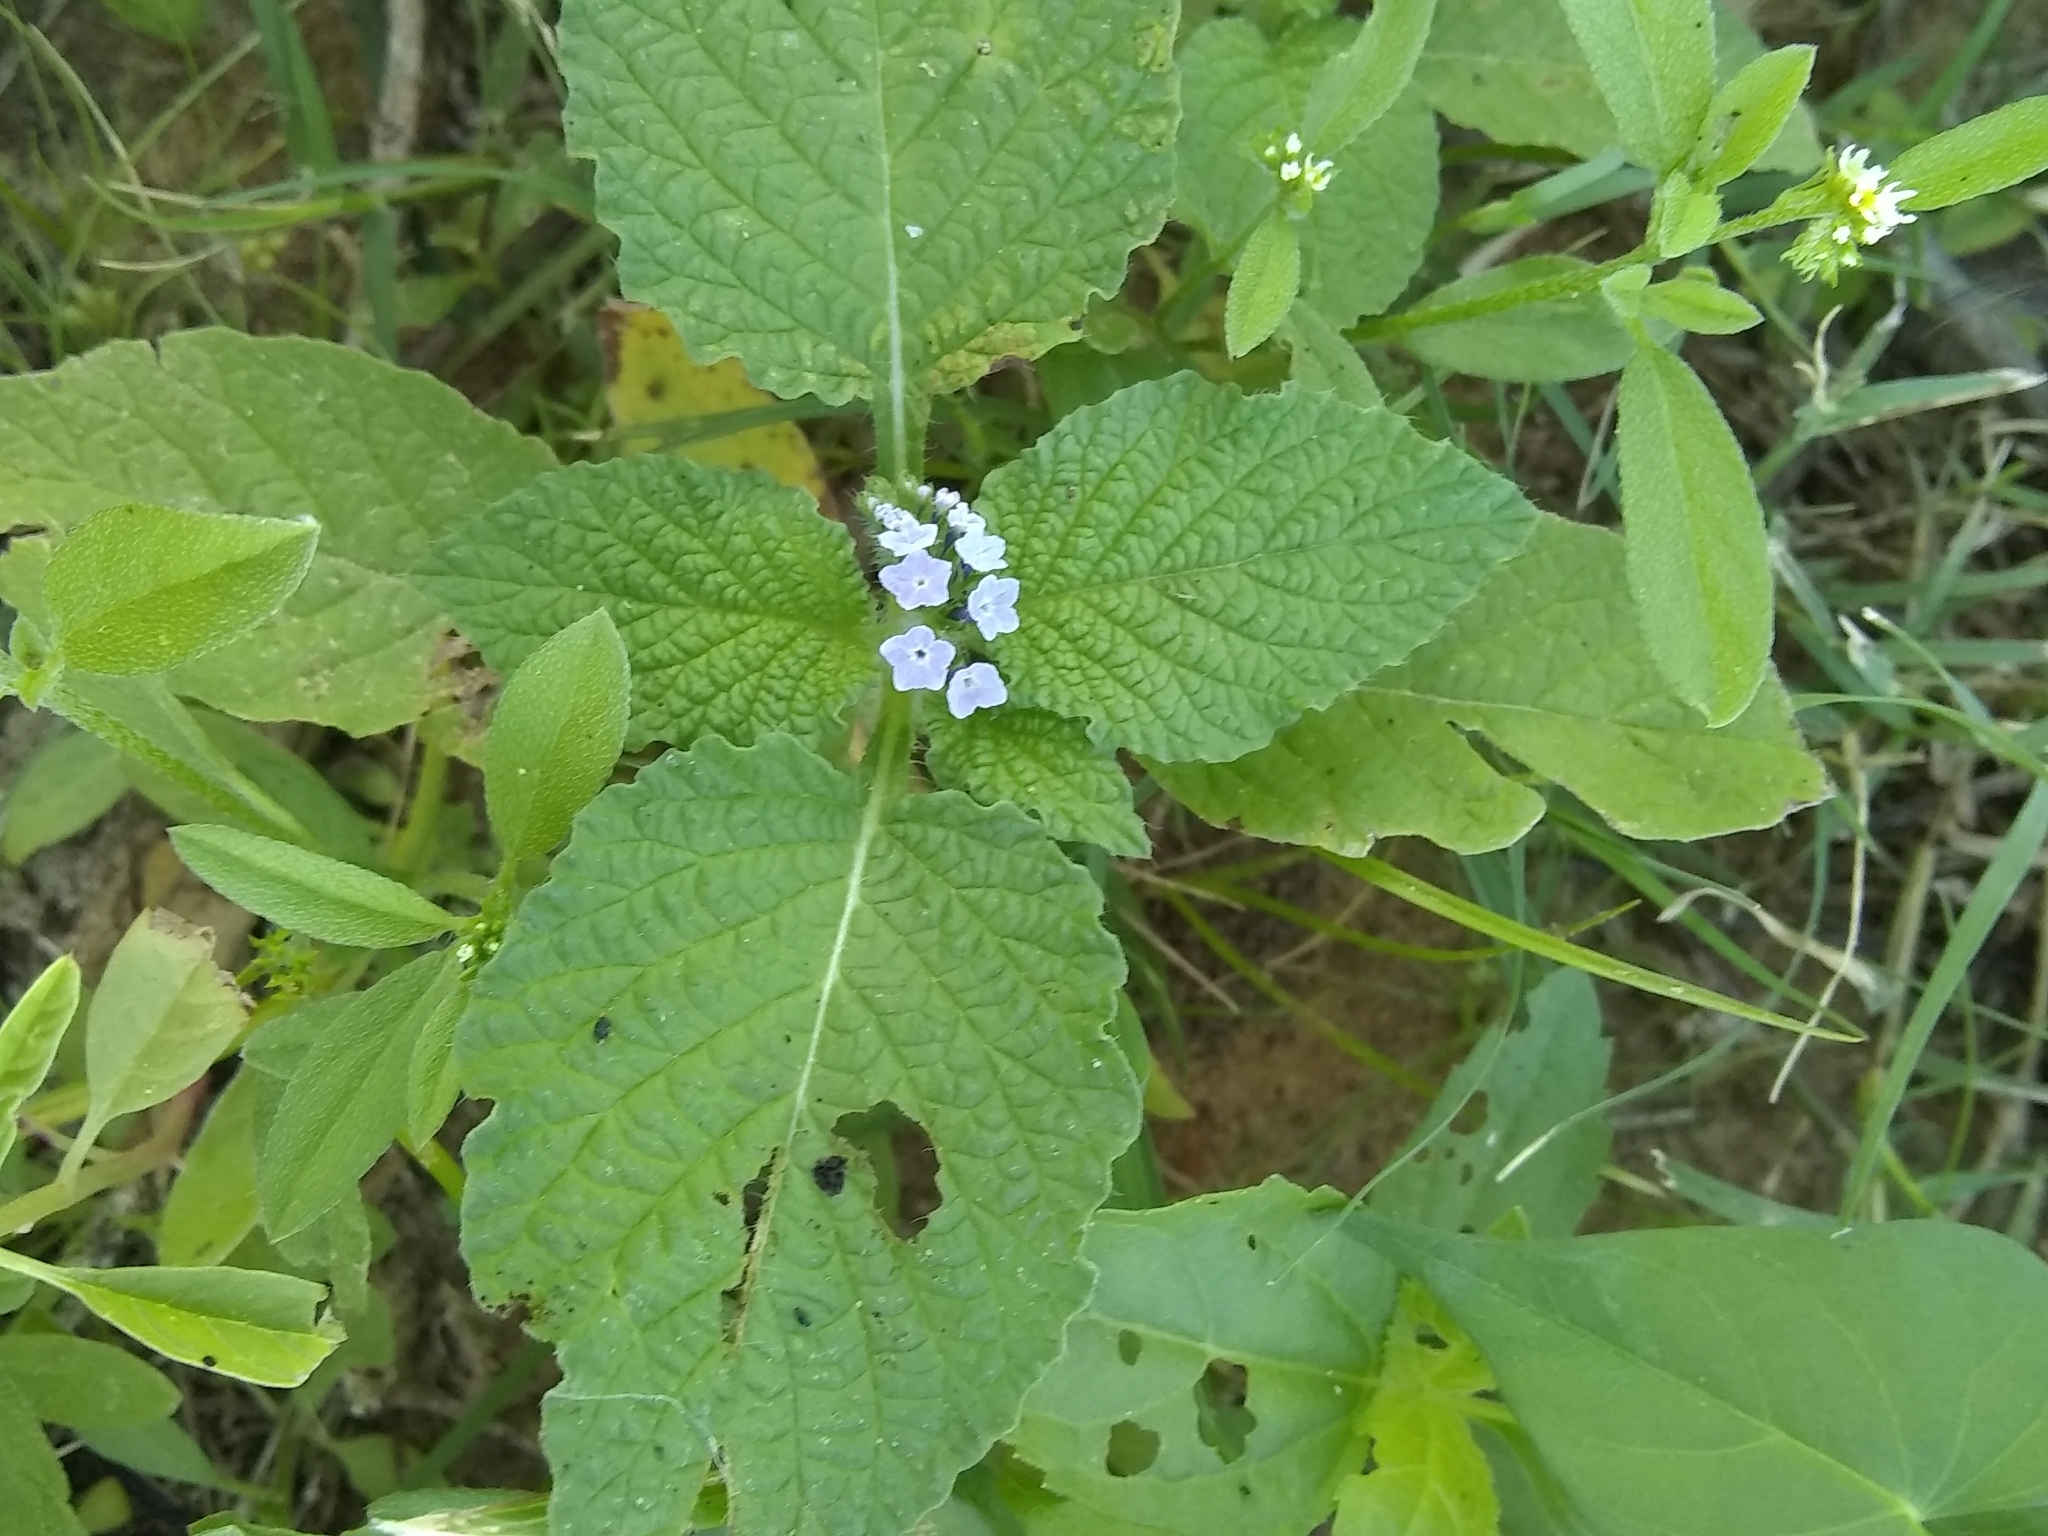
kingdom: Plantae
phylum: Tracheophyta
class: Magnoliopsida
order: Boraginales
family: Heliotropiaceae
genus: Heliotropium
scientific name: Heliotropium indicum
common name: Indian heliotrope
